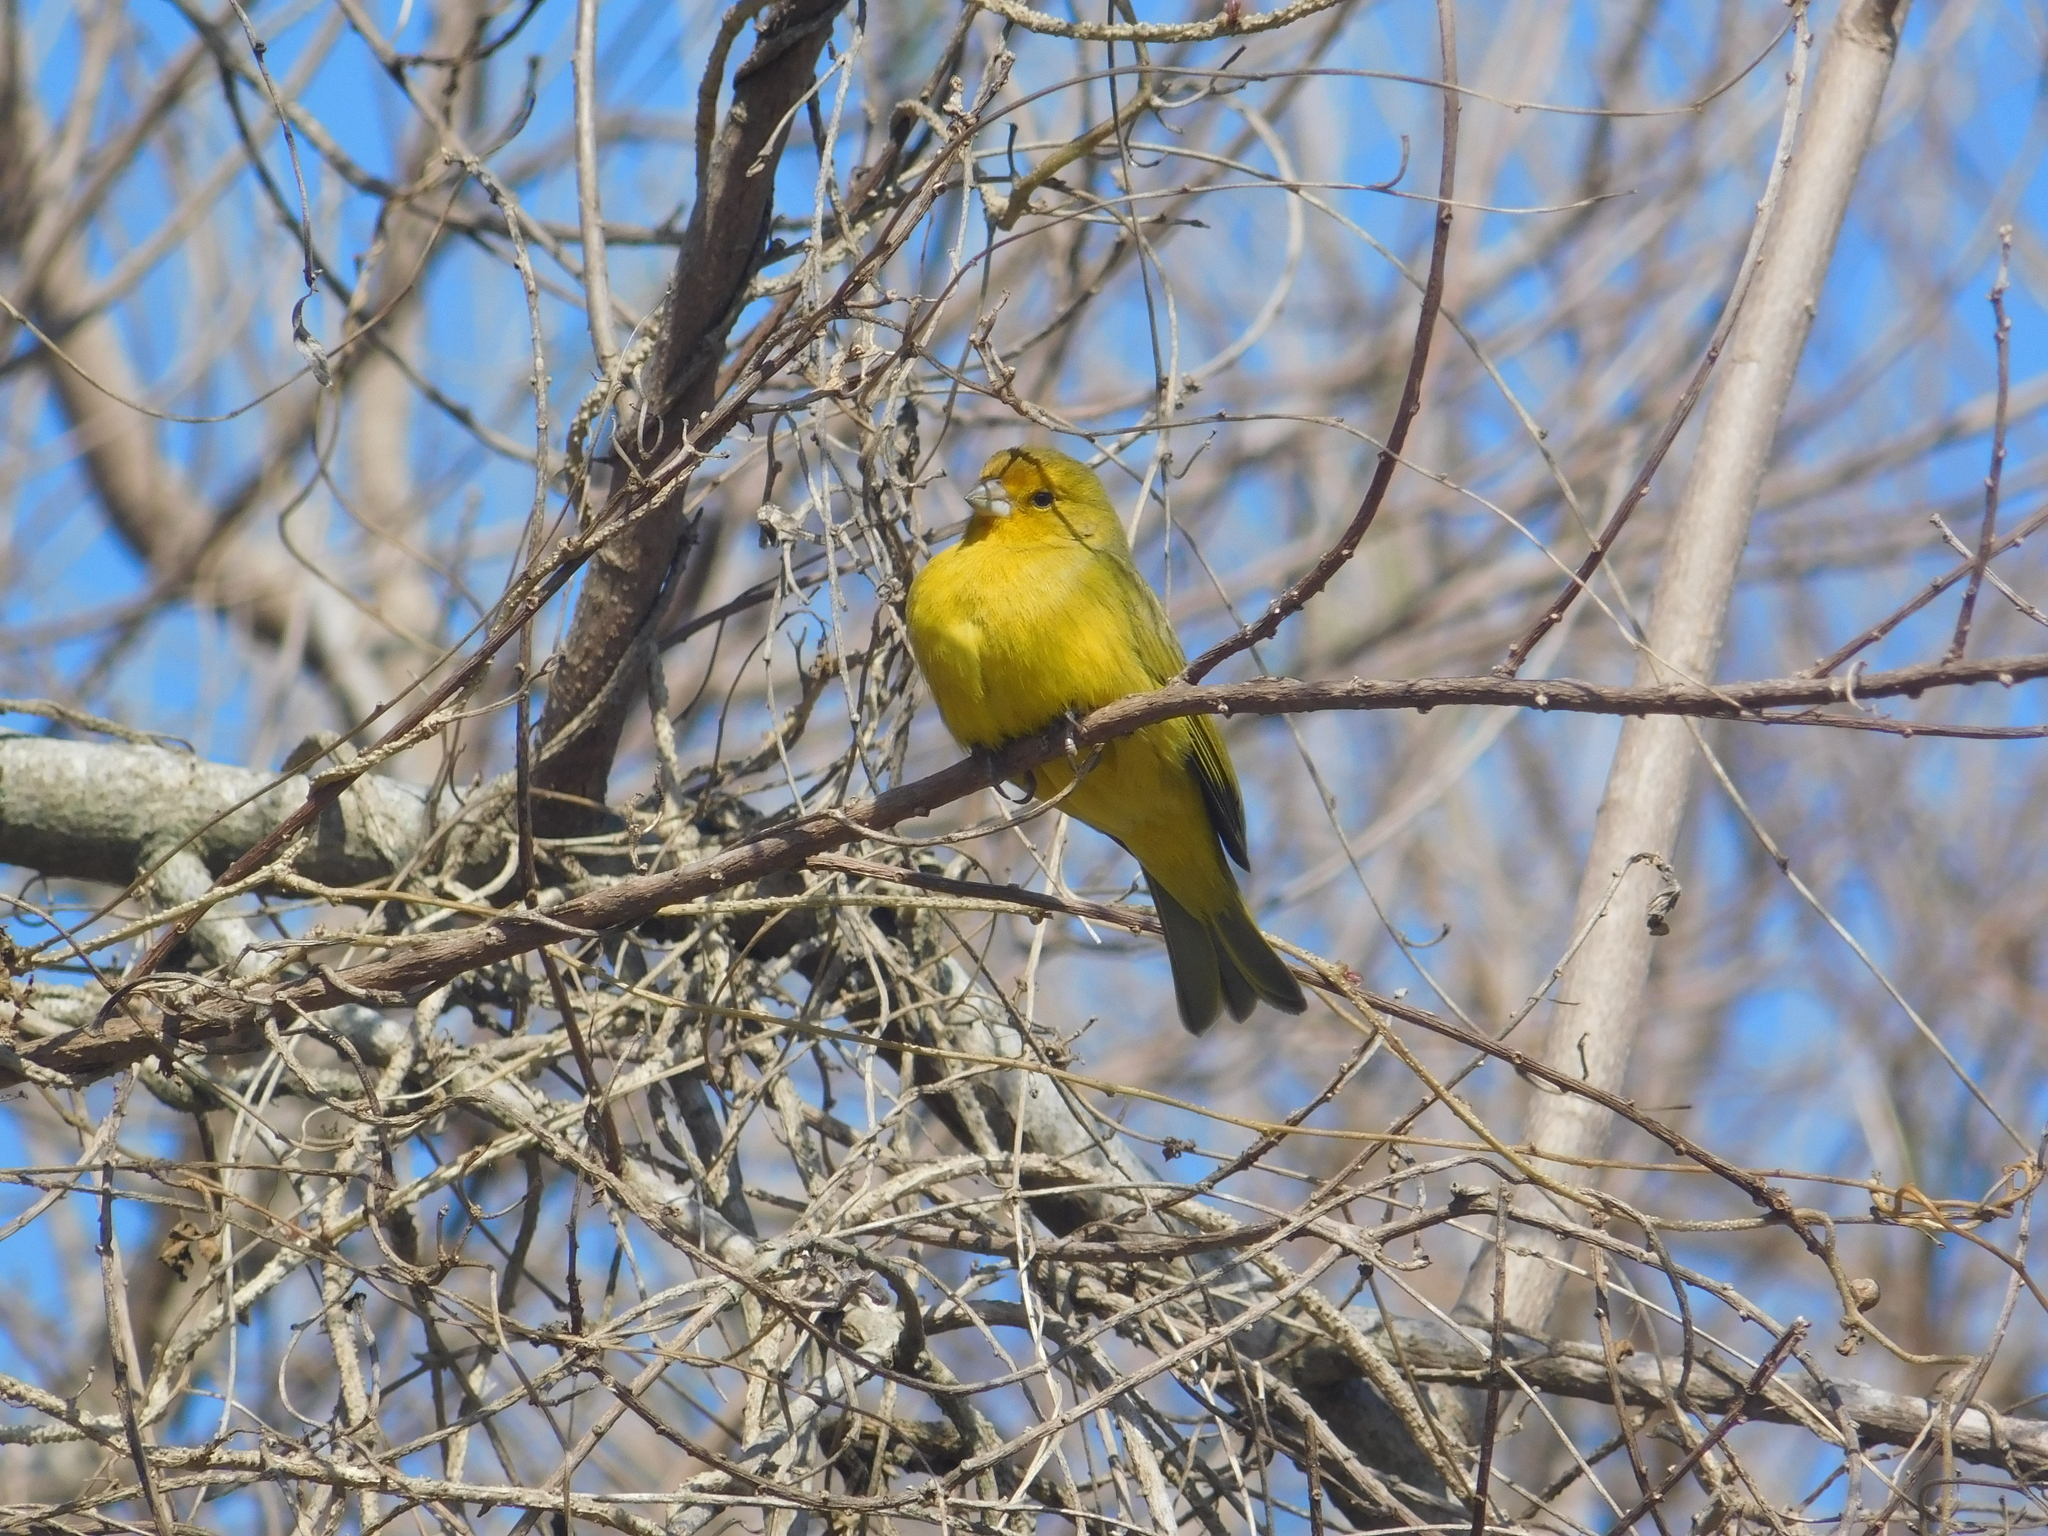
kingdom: Animalia
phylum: Chordata
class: Aves
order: Passeriformes
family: Thraupidae
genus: Sicalis
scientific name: Sicalis flaveola
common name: Saffron finch
